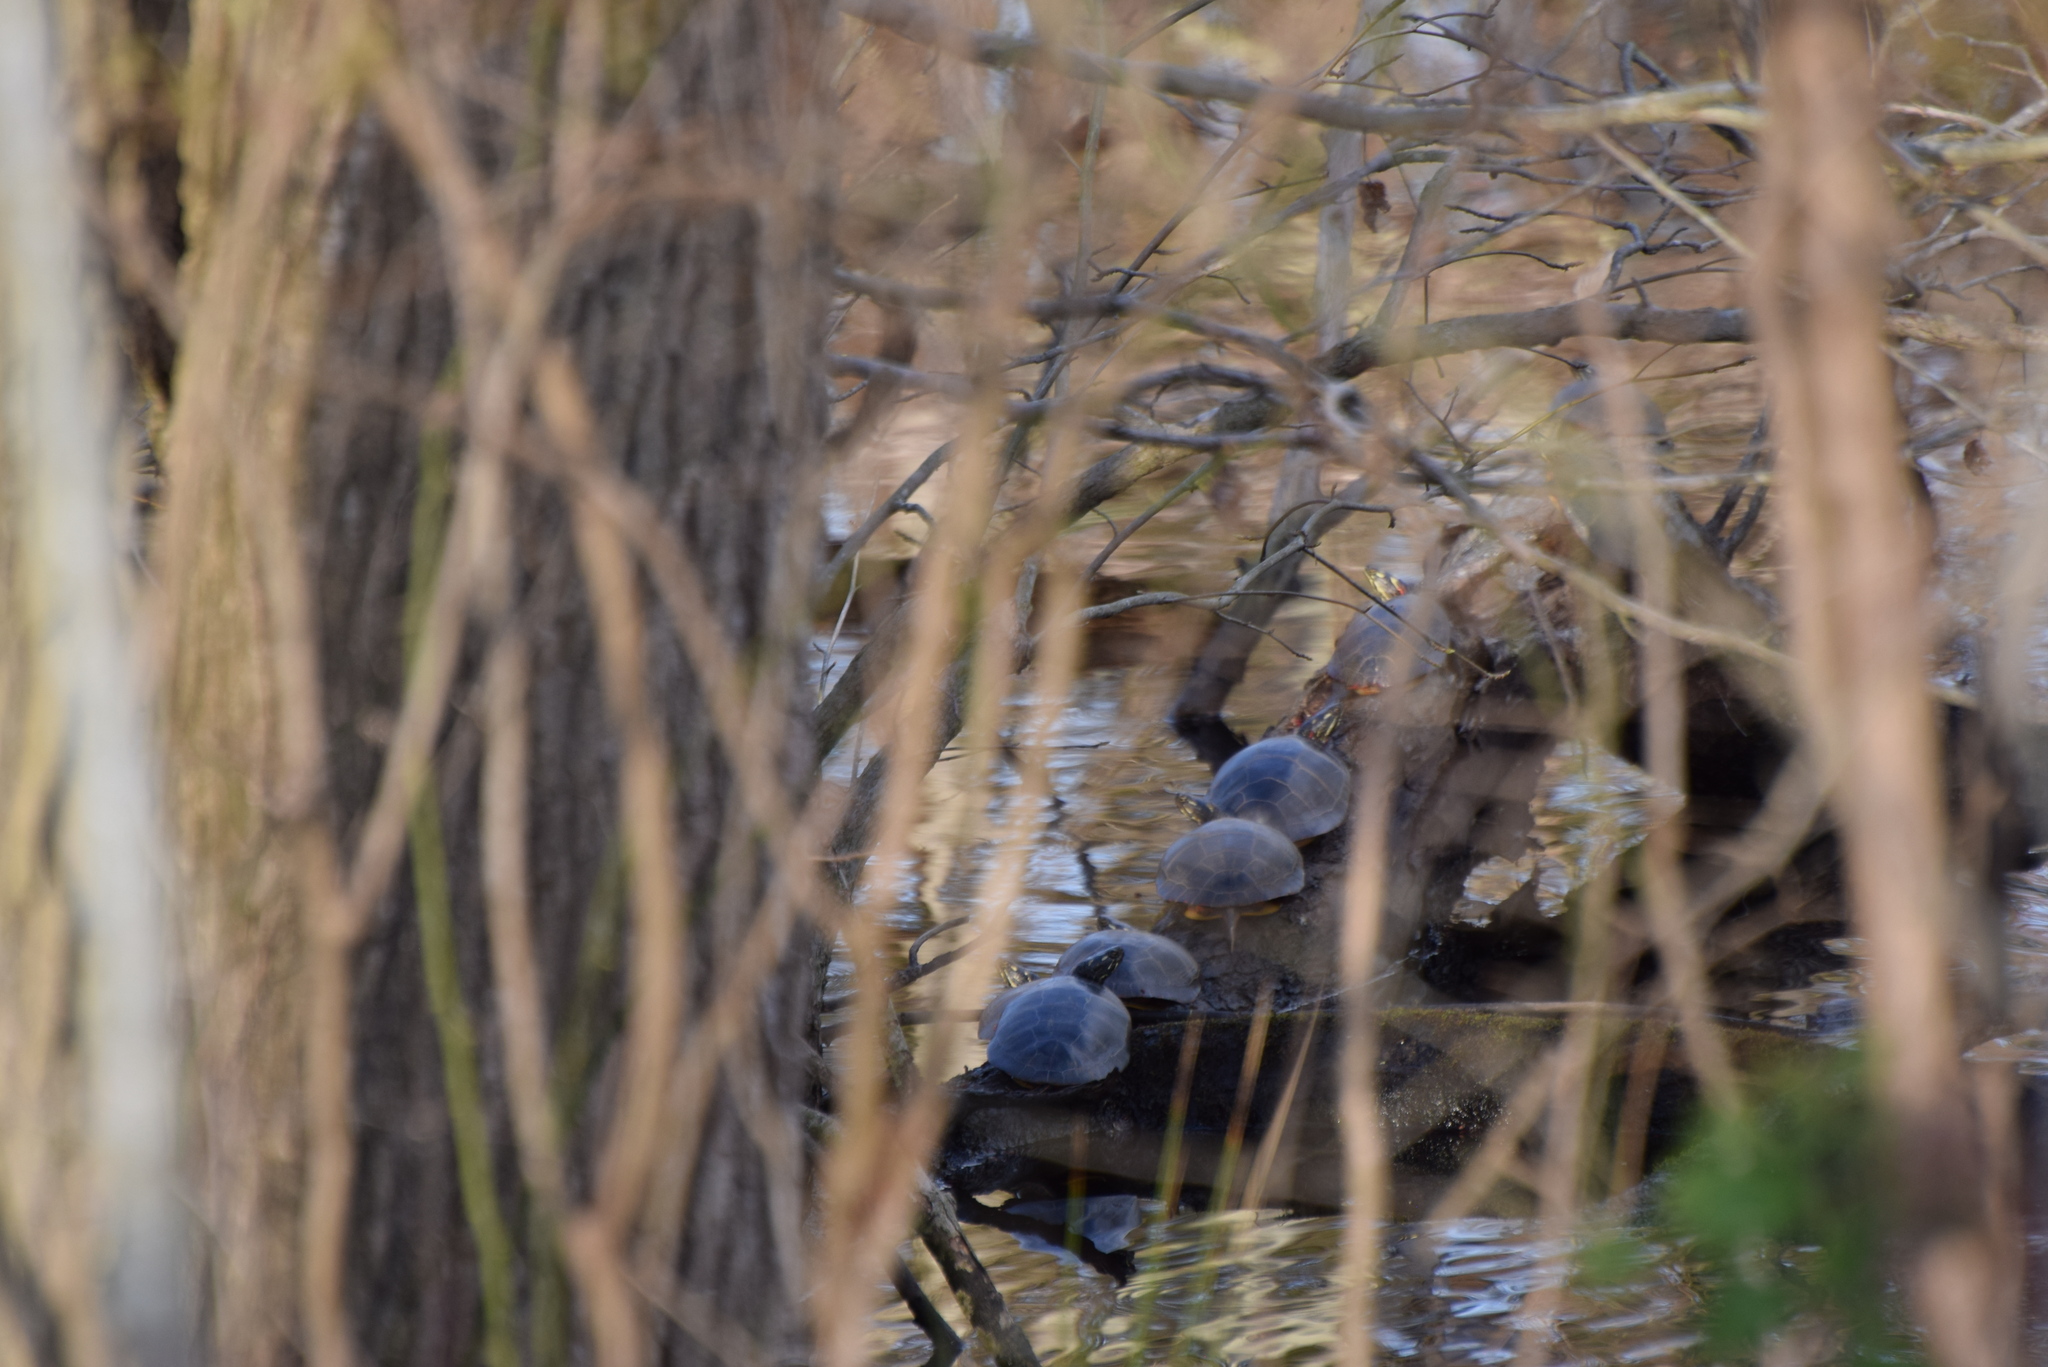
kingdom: Animalia
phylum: Chordata
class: Testudines
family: Emydidae
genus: Chrysemys
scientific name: Chrysemys picta
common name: Painted turtle
